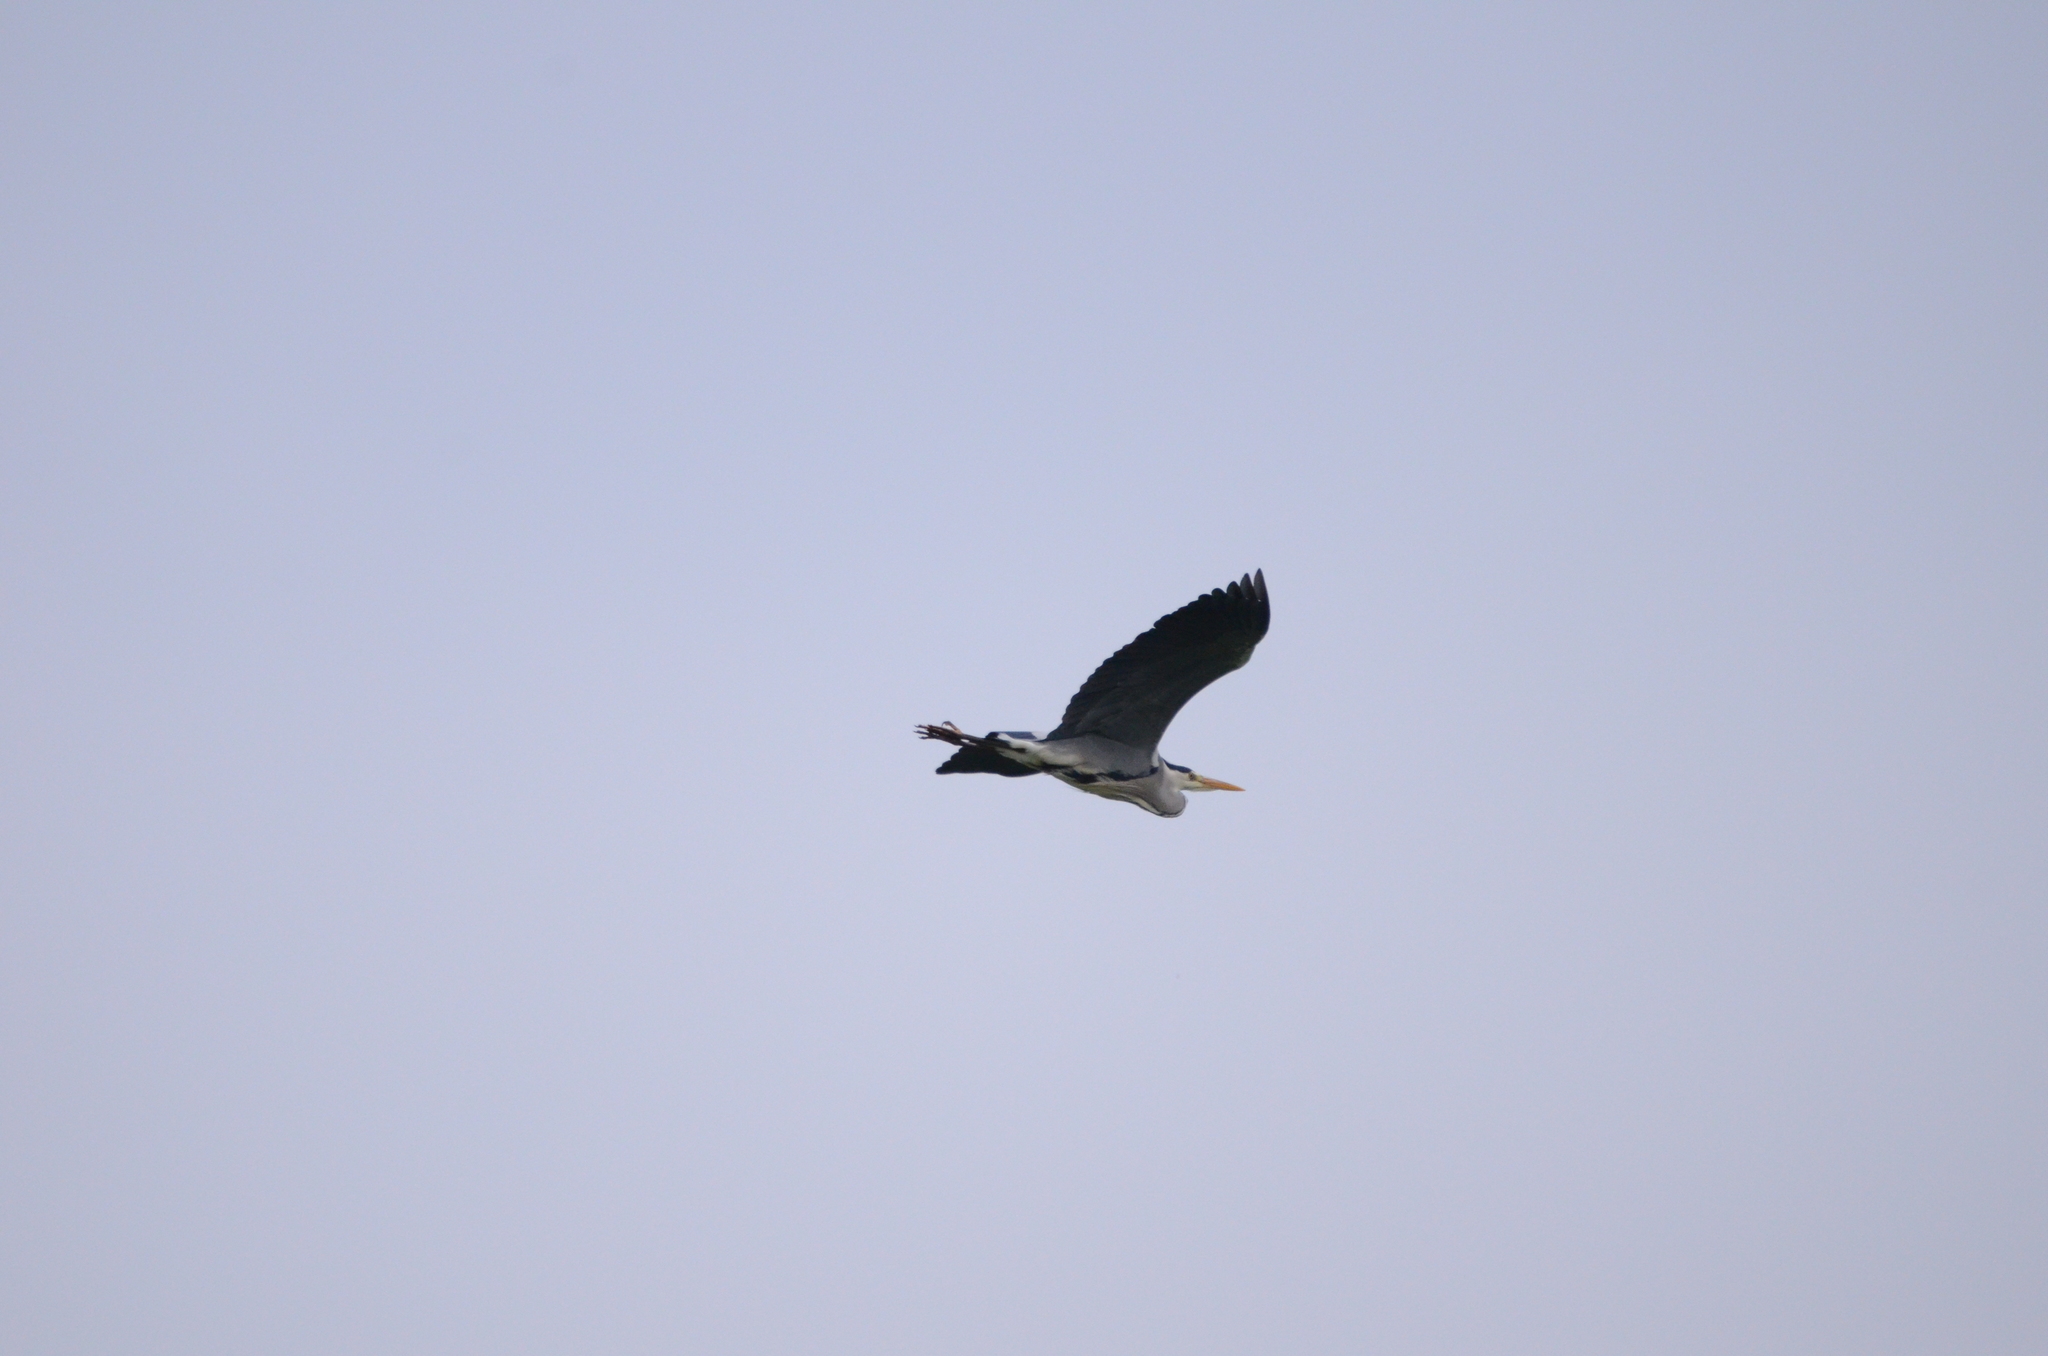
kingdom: Animalia
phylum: Chordata
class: Aves
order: Pelecaniformes
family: Ardeidae
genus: Ardea
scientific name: Ardea cinerea
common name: Grey heron
